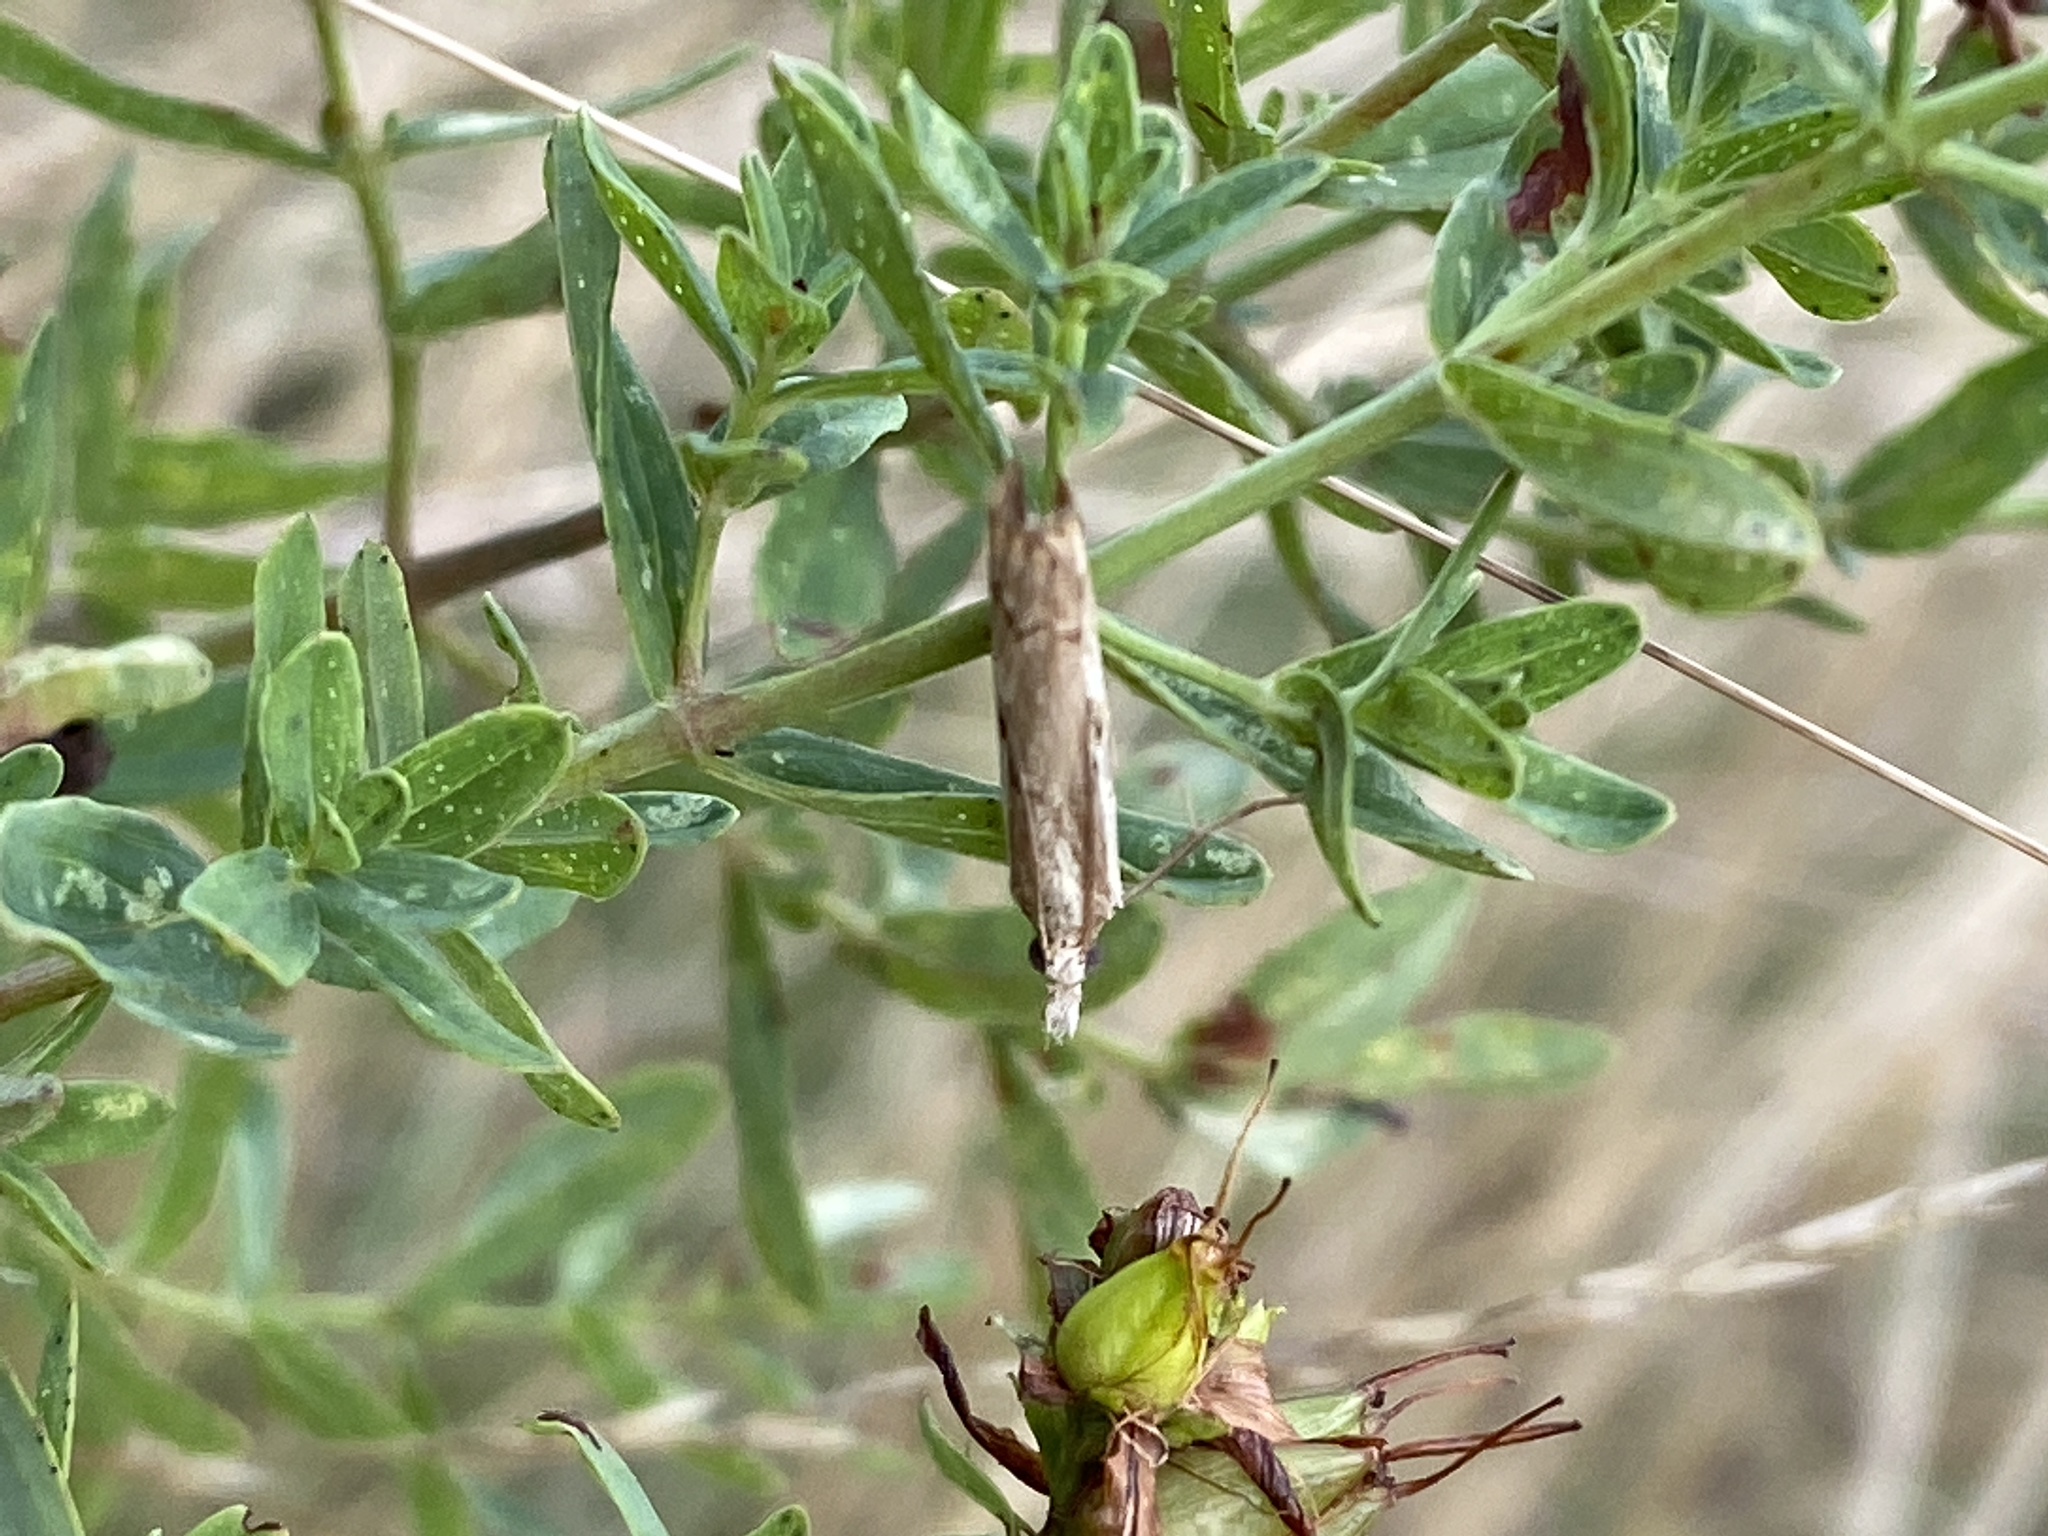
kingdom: Animalia
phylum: Arthropoda
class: Insecta
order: Lepidoptera
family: Crambidae
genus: Agriphila
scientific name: Agriphila geniculea
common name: Elbow-stripe grass-veneer
